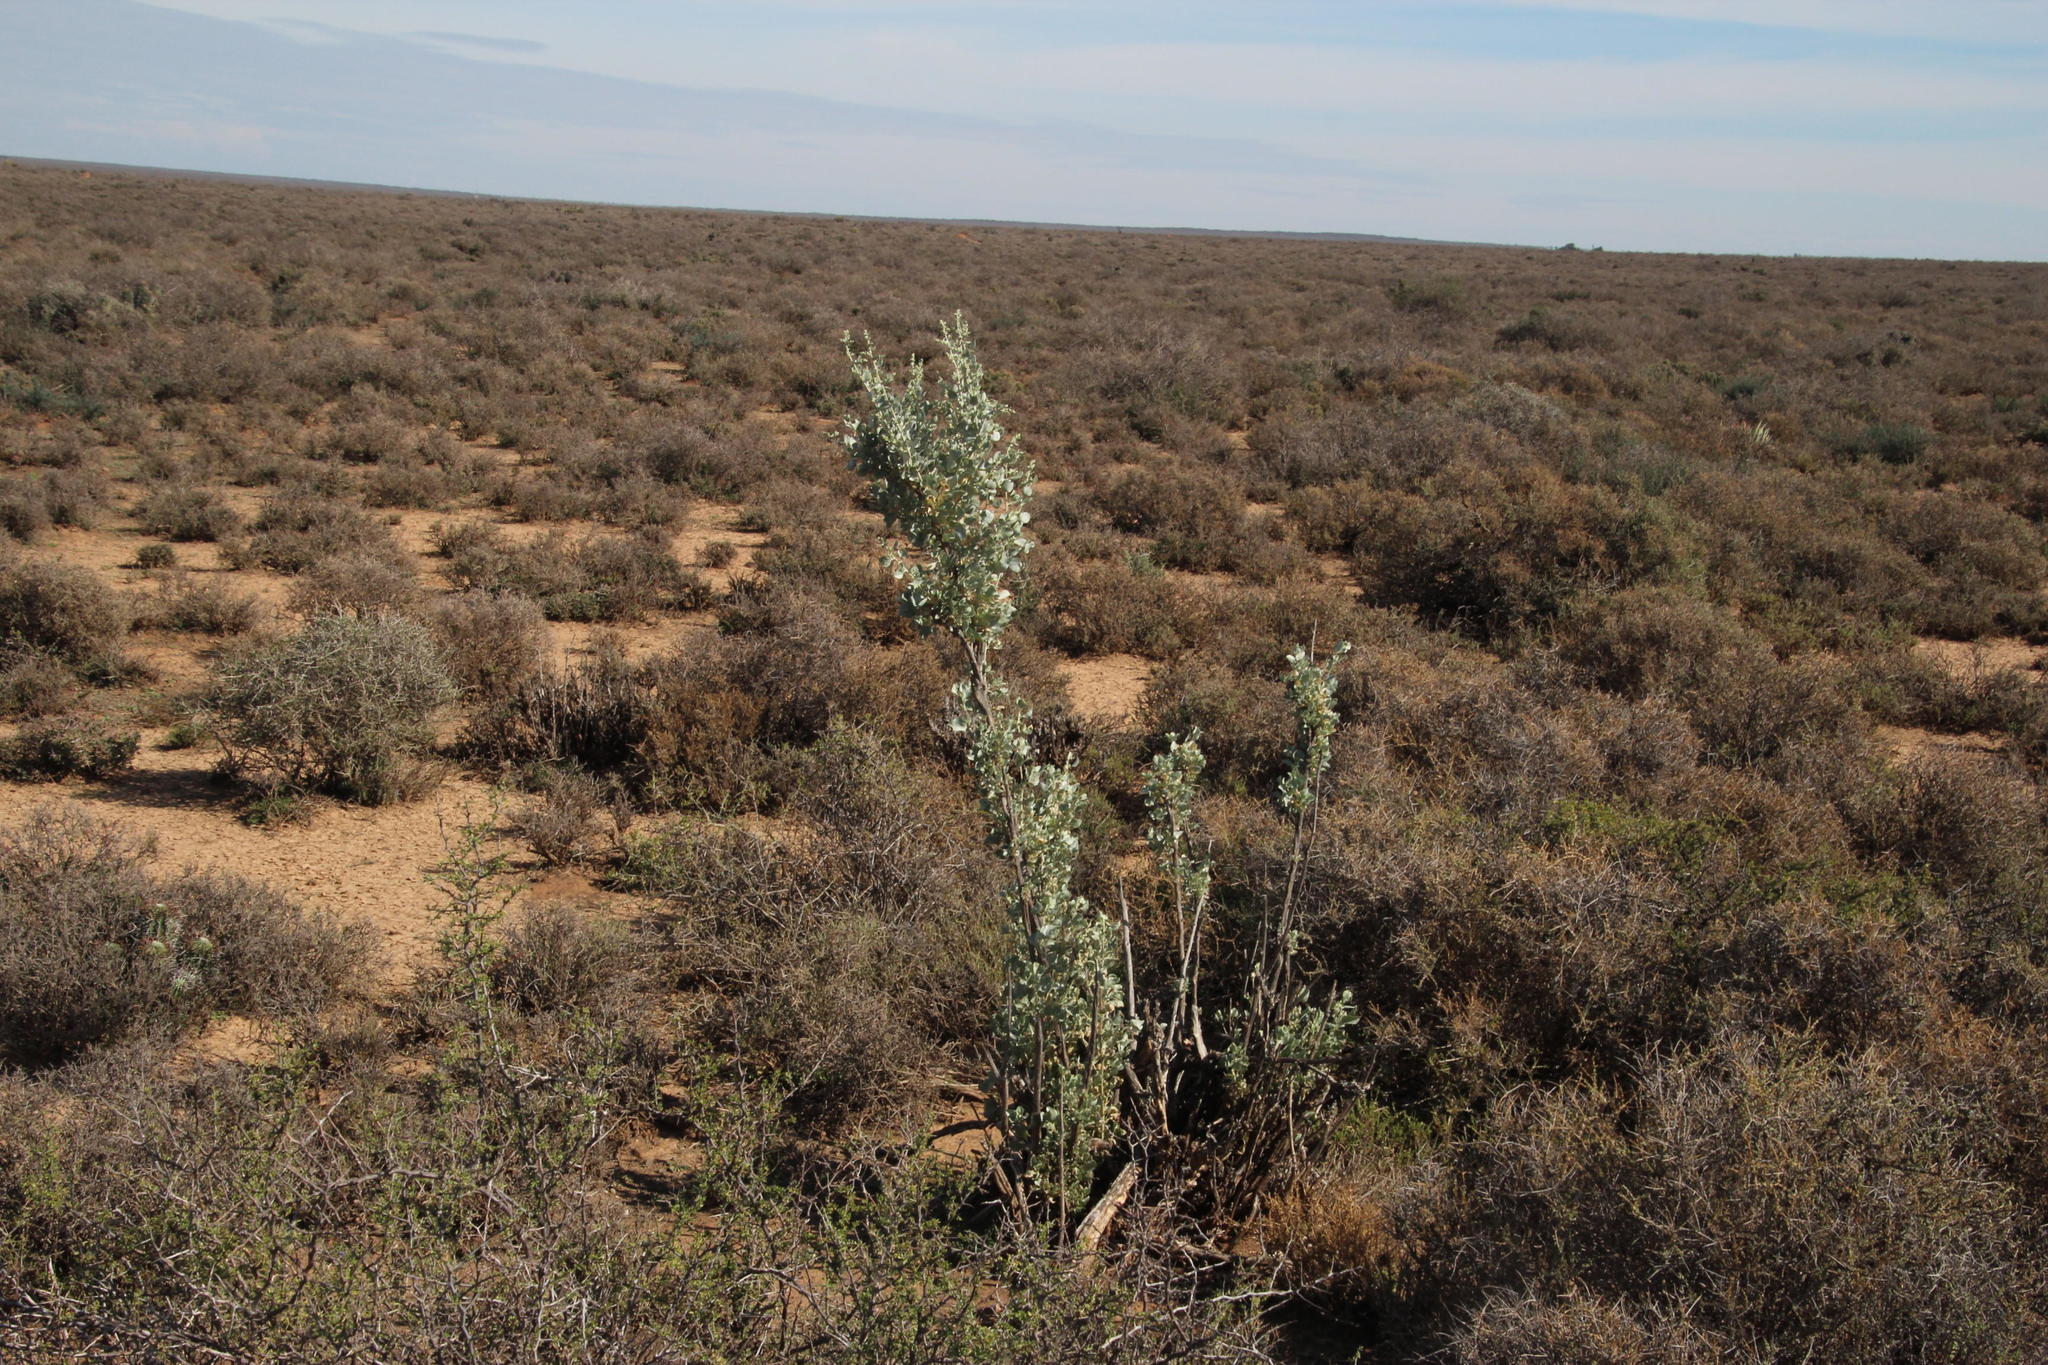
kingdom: Plantae
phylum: Tracheophyta
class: Magnoliopsida
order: Caryophyllales
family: Amaranthaceae
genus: Atriplex
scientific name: Atriplex nummularia
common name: Bluegreen saltbush
